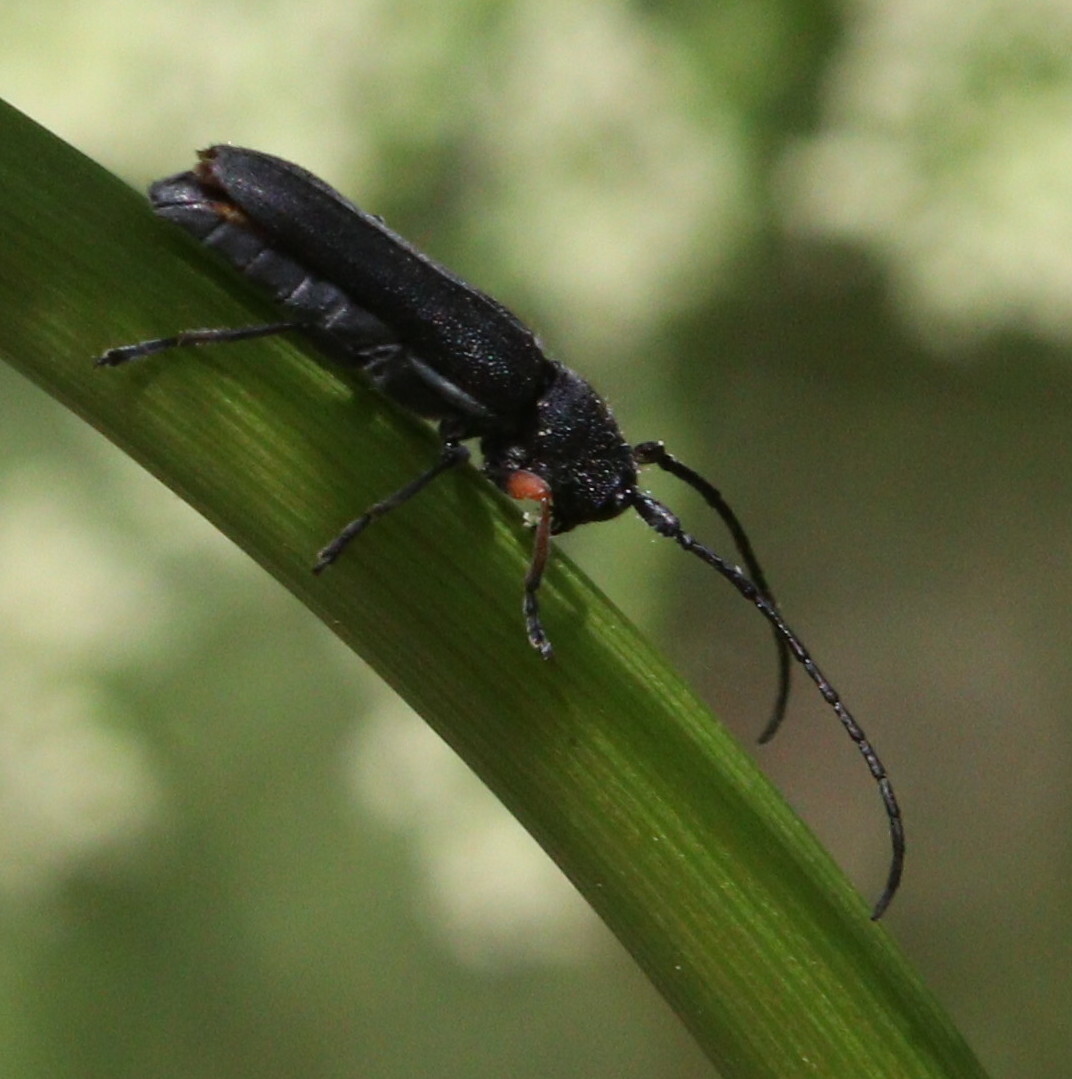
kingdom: Animalia
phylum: Arthropoda
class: Insecta
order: Coleoptera
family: Cerambycidae
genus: Phytoecia
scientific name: Phytoecia cylindrica
